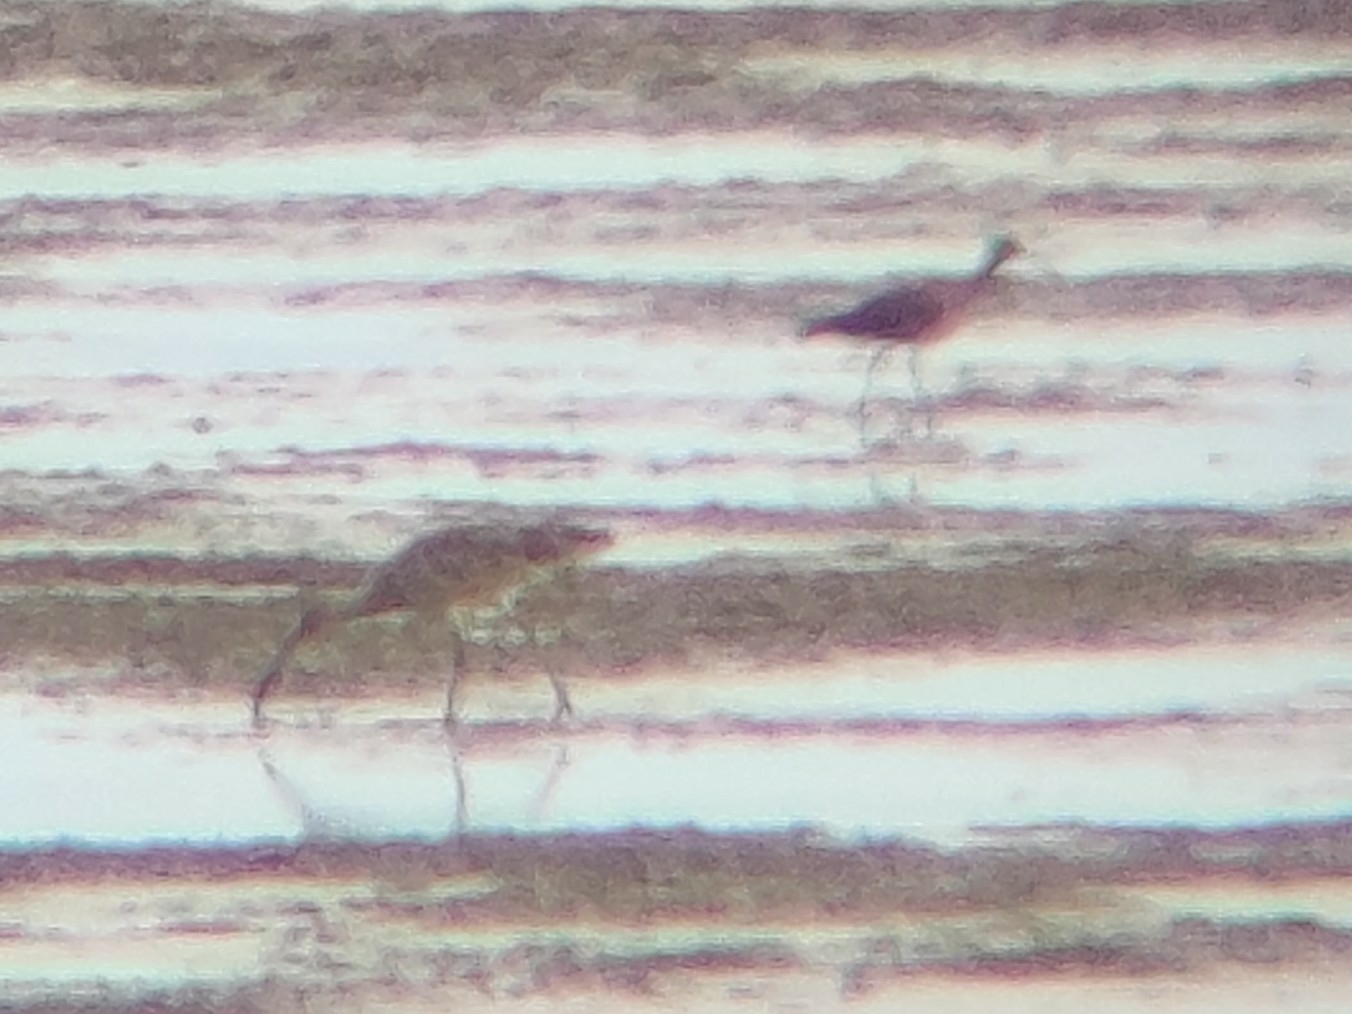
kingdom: Animalia
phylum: Chordata
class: Aves
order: Charadriiformes
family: Scolopacidae
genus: Numenius
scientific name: Numenius madagascariensis
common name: Far eastern curlew
